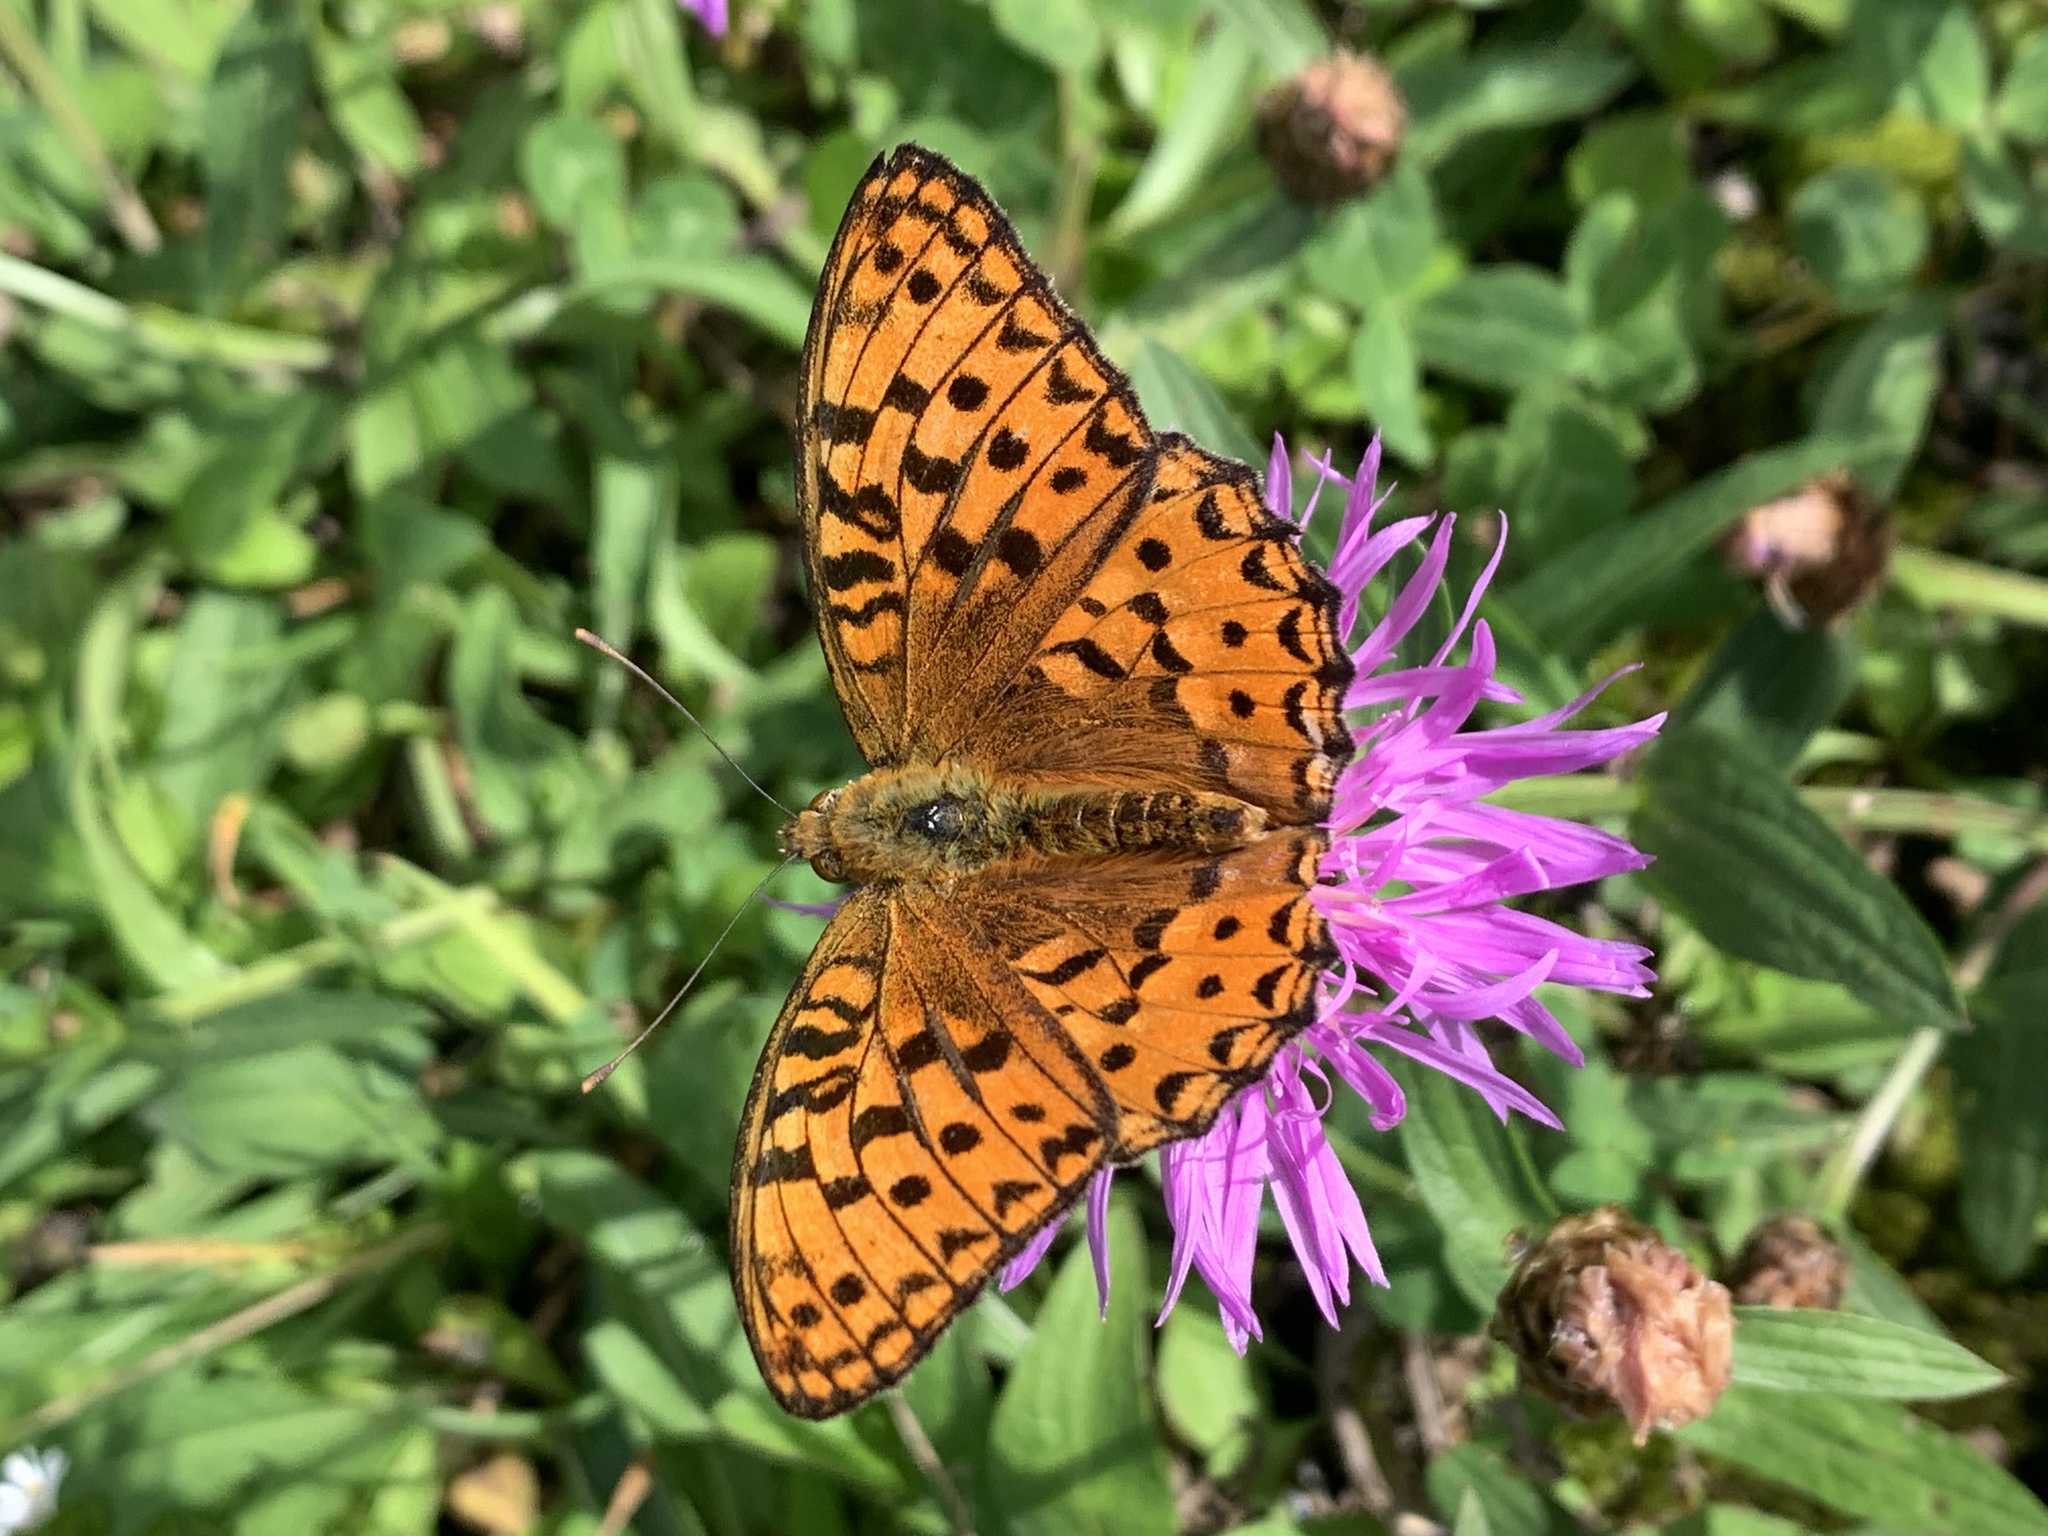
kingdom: Animalia
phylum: Arthropoda
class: Insecta
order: Lepidoptera
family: Nymphalidae
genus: Fabriciana
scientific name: Fabriciana adippe
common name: High brown fritillary
